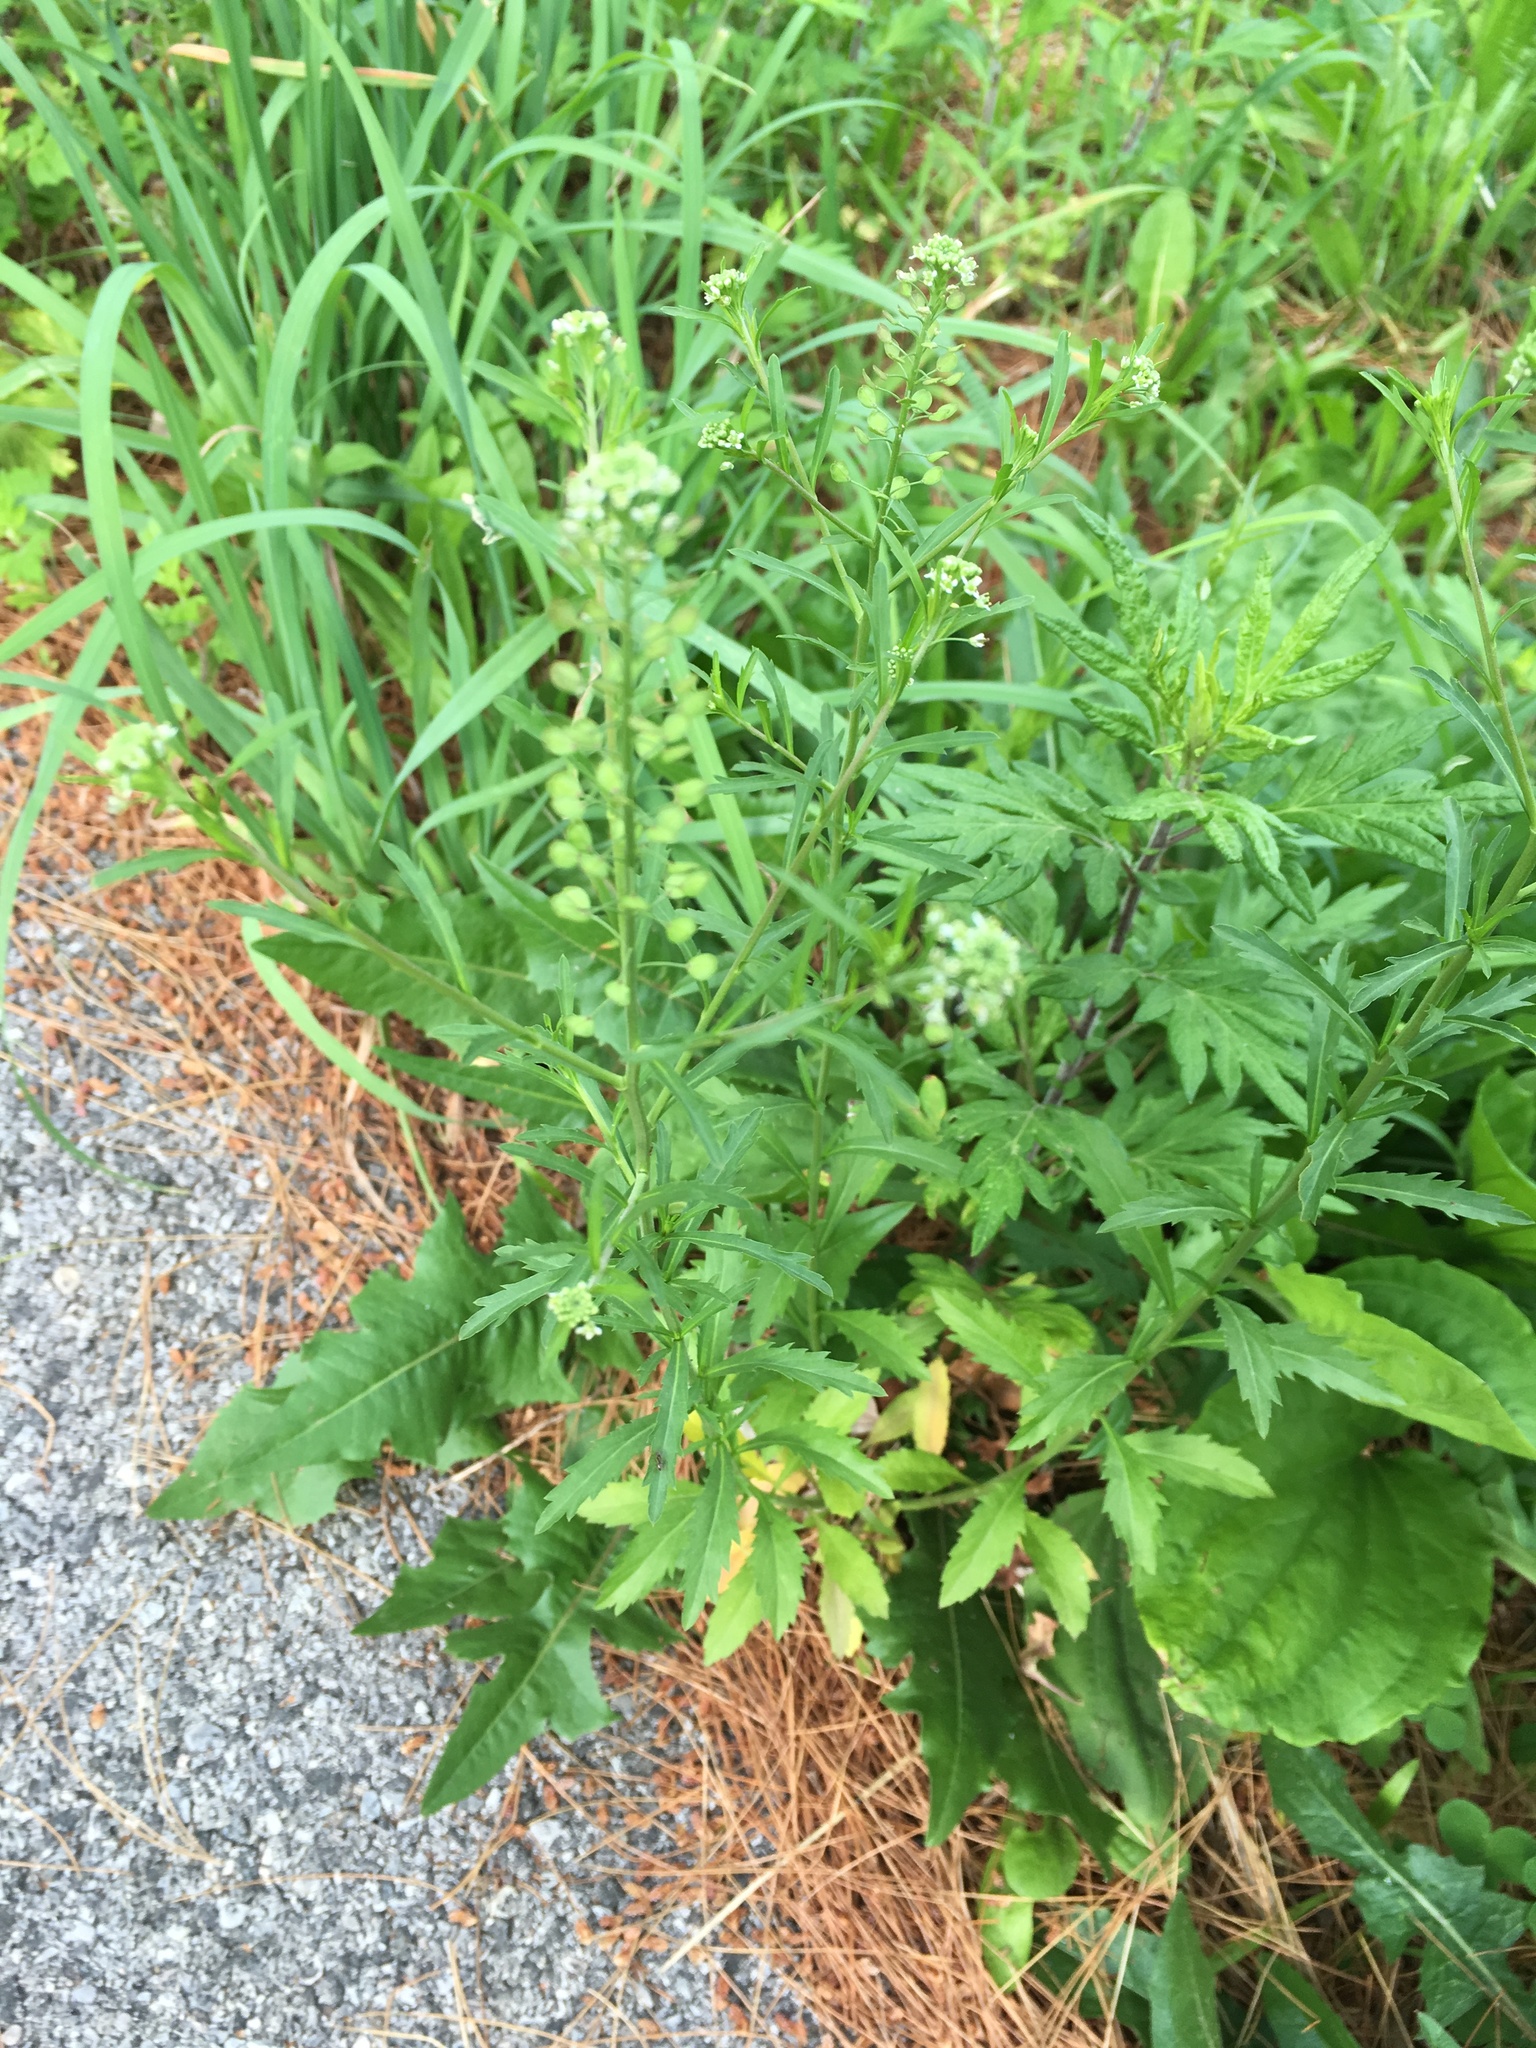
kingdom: Plantae
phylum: Tracheophyta
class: Magnoliopsida
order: Brassicales
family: Brassicaceae
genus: Lepidium
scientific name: Lepidium virginicum
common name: Least pepperwort
